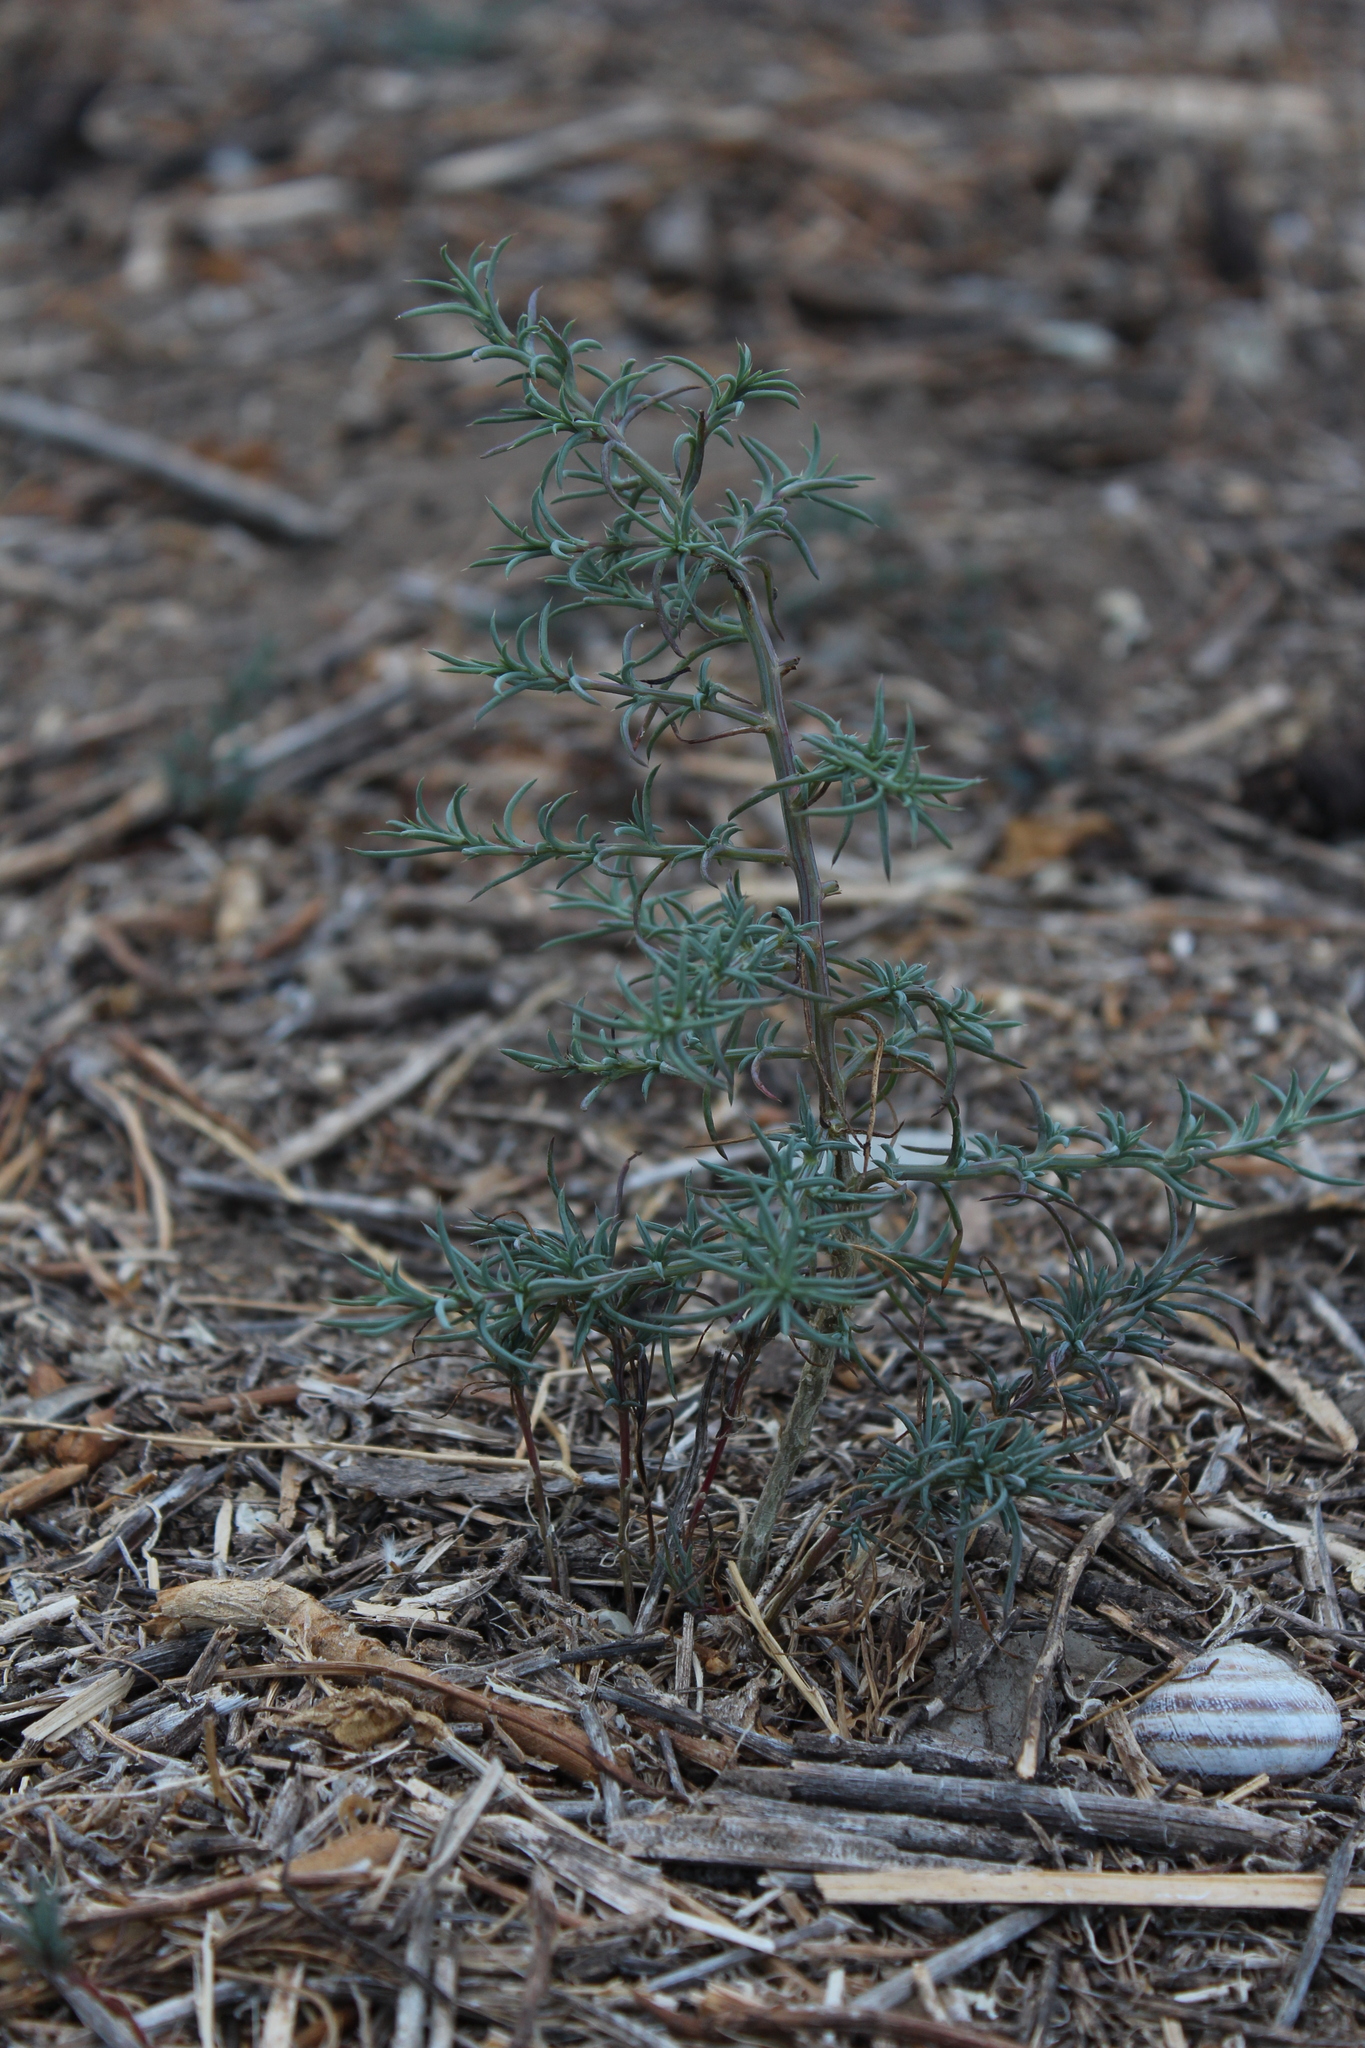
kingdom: Plantae
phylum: Tracheophyta
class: Magnoliopsida
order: Caryophyllales
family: Amaranthaceae
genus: Salsola
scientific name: Salsola australis
